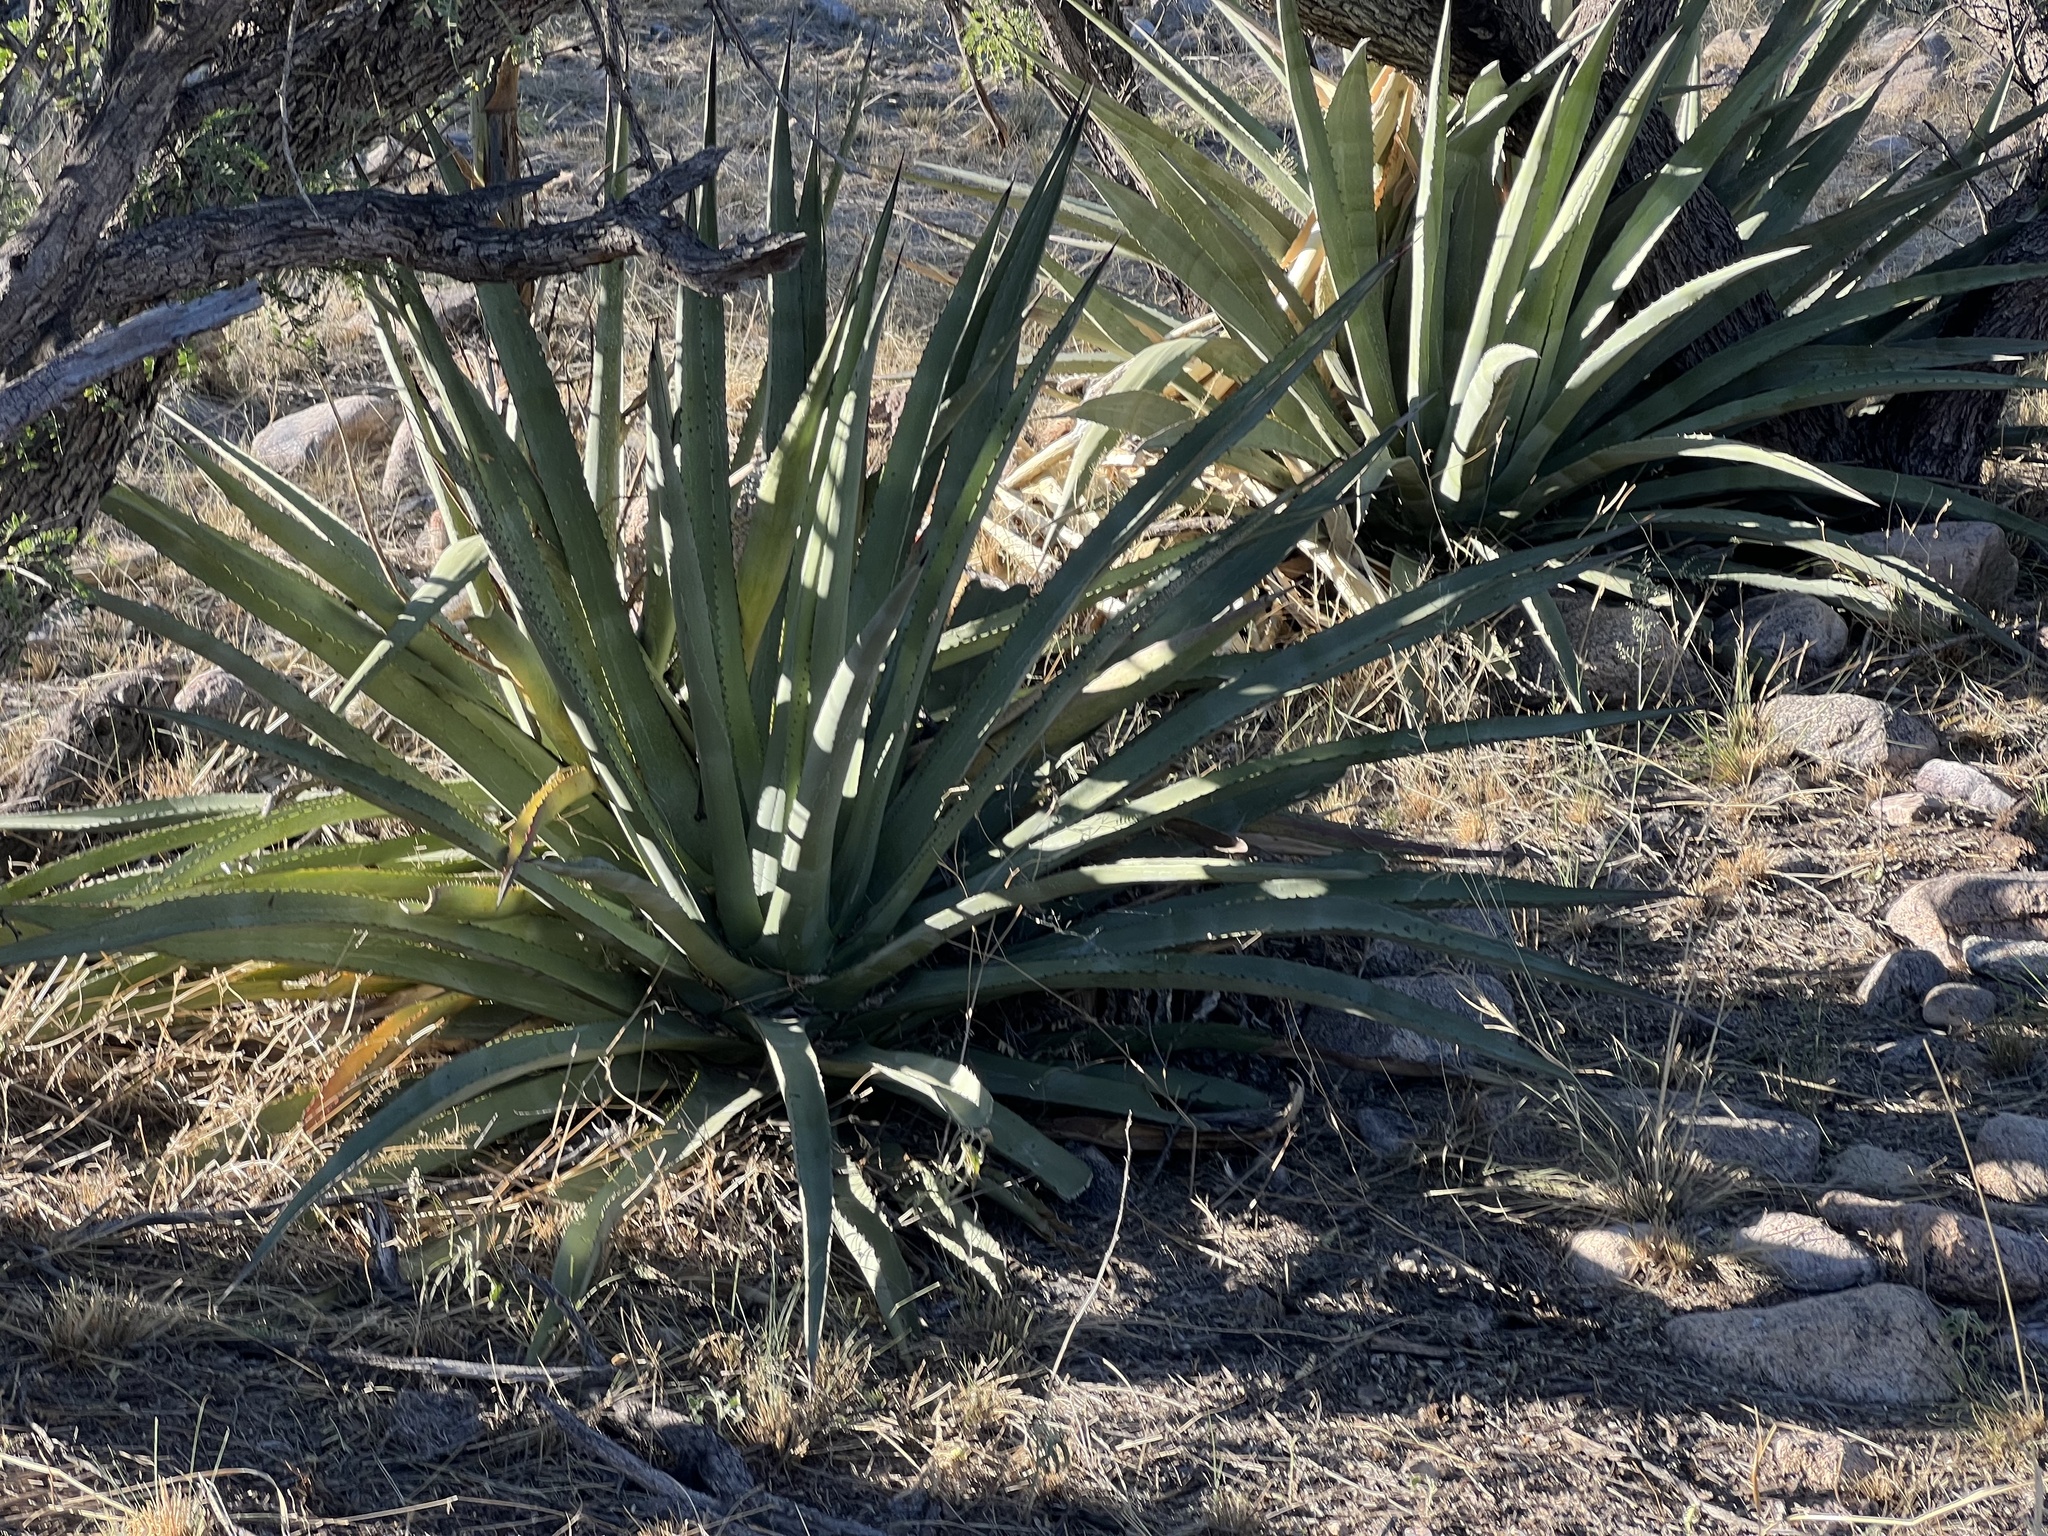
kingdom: Plantae
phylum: Tracheophyta
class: Liliopsida
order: Asparagales
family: Asparagaceae
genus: Agave
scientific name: Agave palmeri
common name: Palmer agave
